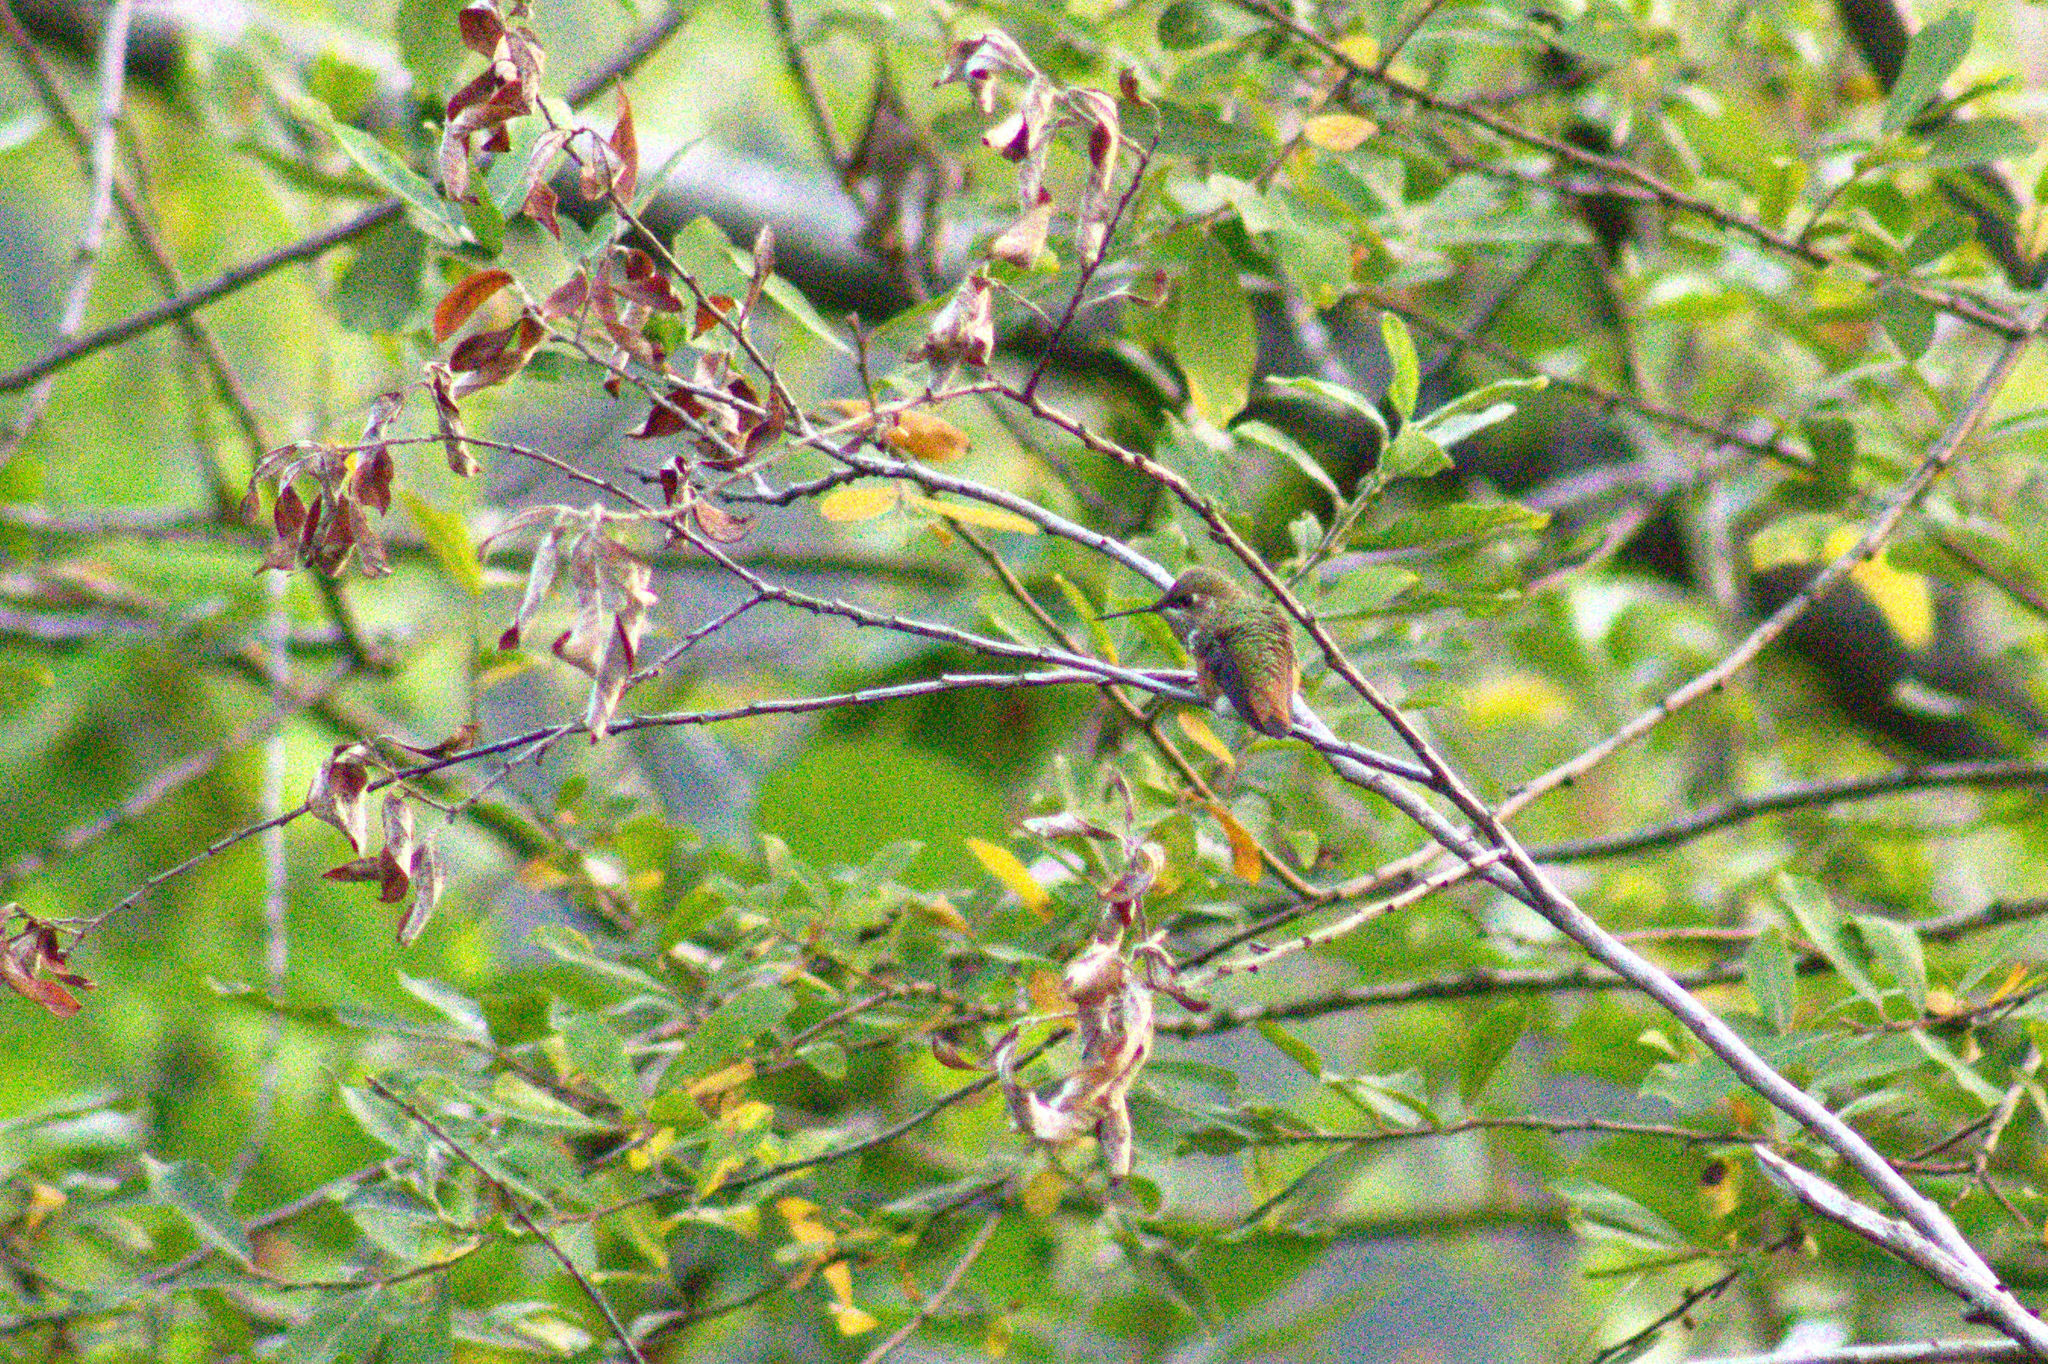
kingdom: Animalia
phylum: Chordata
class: Aves
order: Apodiformes
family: Trochilidae
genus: Selasphorus
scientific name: Selasphorus rufus
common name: Rufous hummingbird
